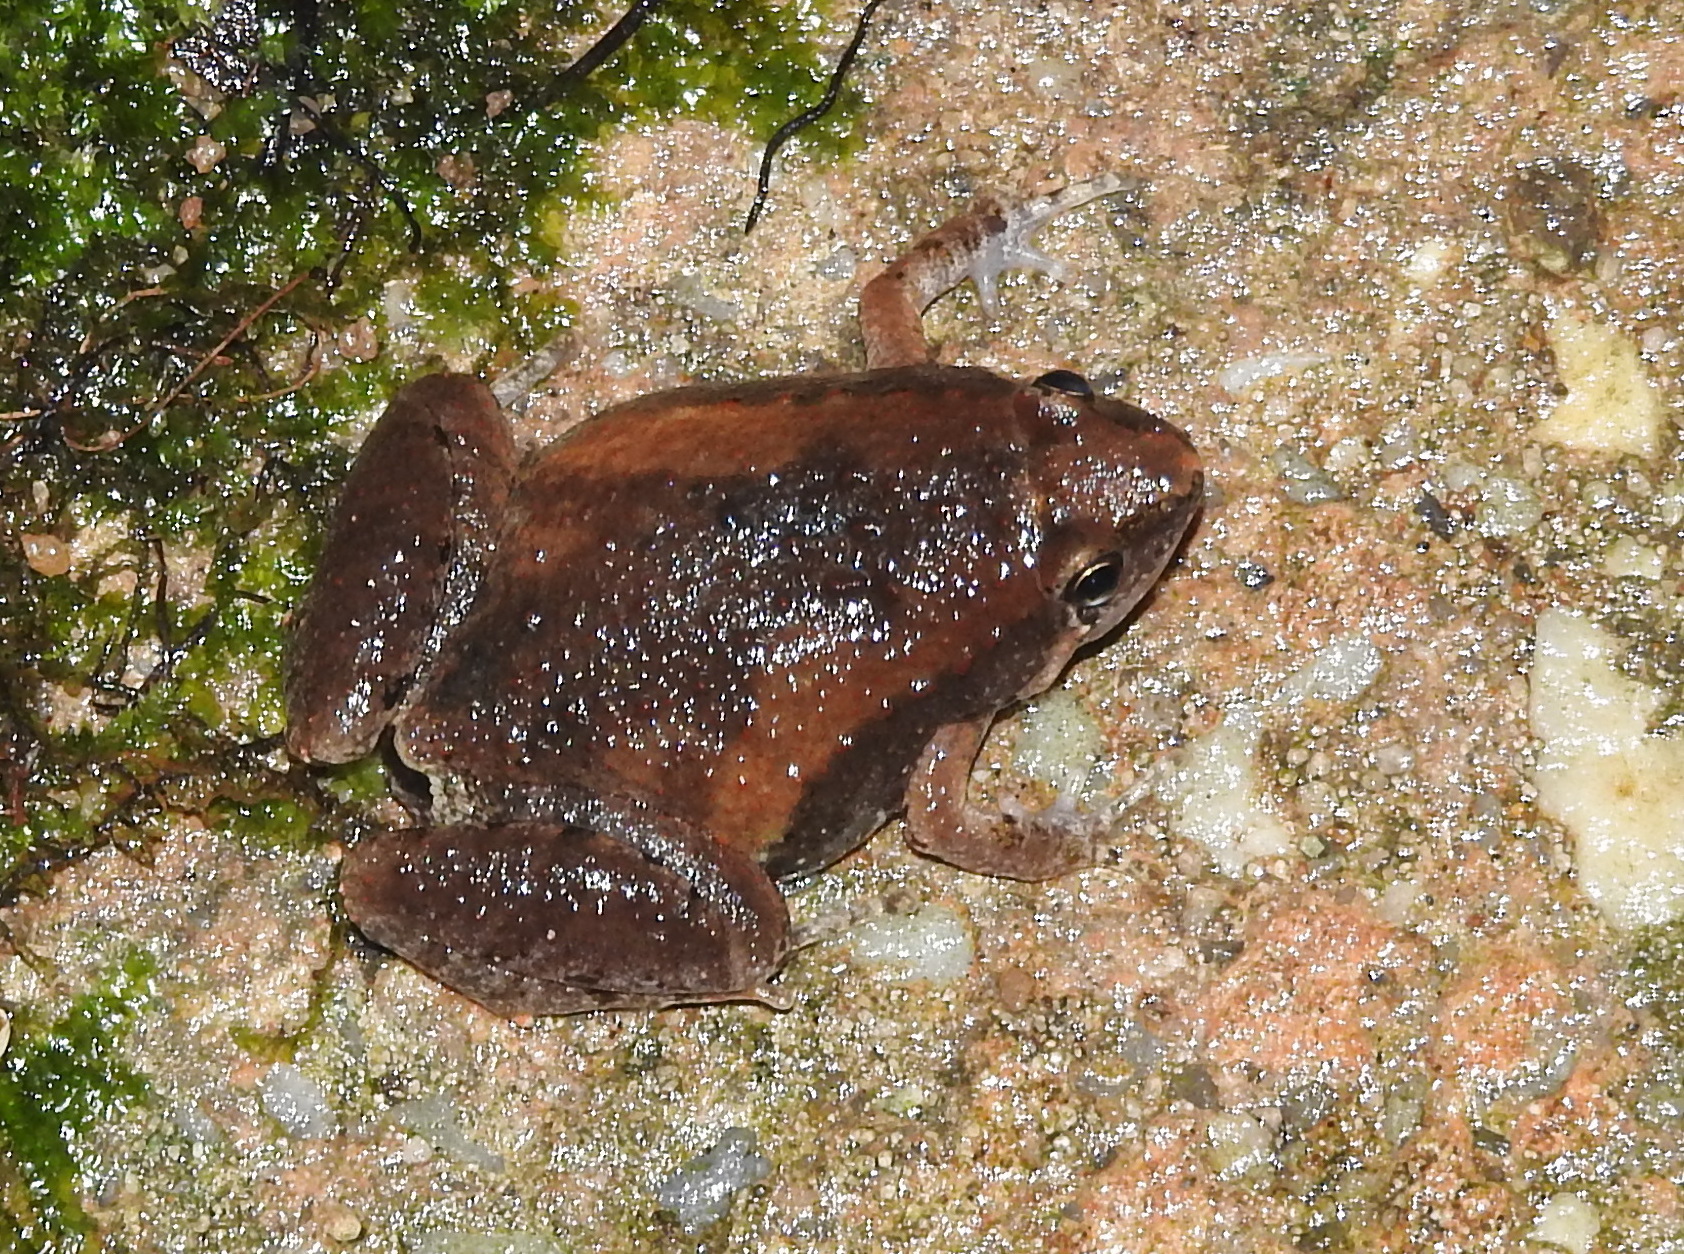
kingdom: Animalia
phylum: Chordata
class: Amphibia
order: Anura
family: Microhylidae
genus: Microhyla
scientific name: Microhyla mukhlesuri
